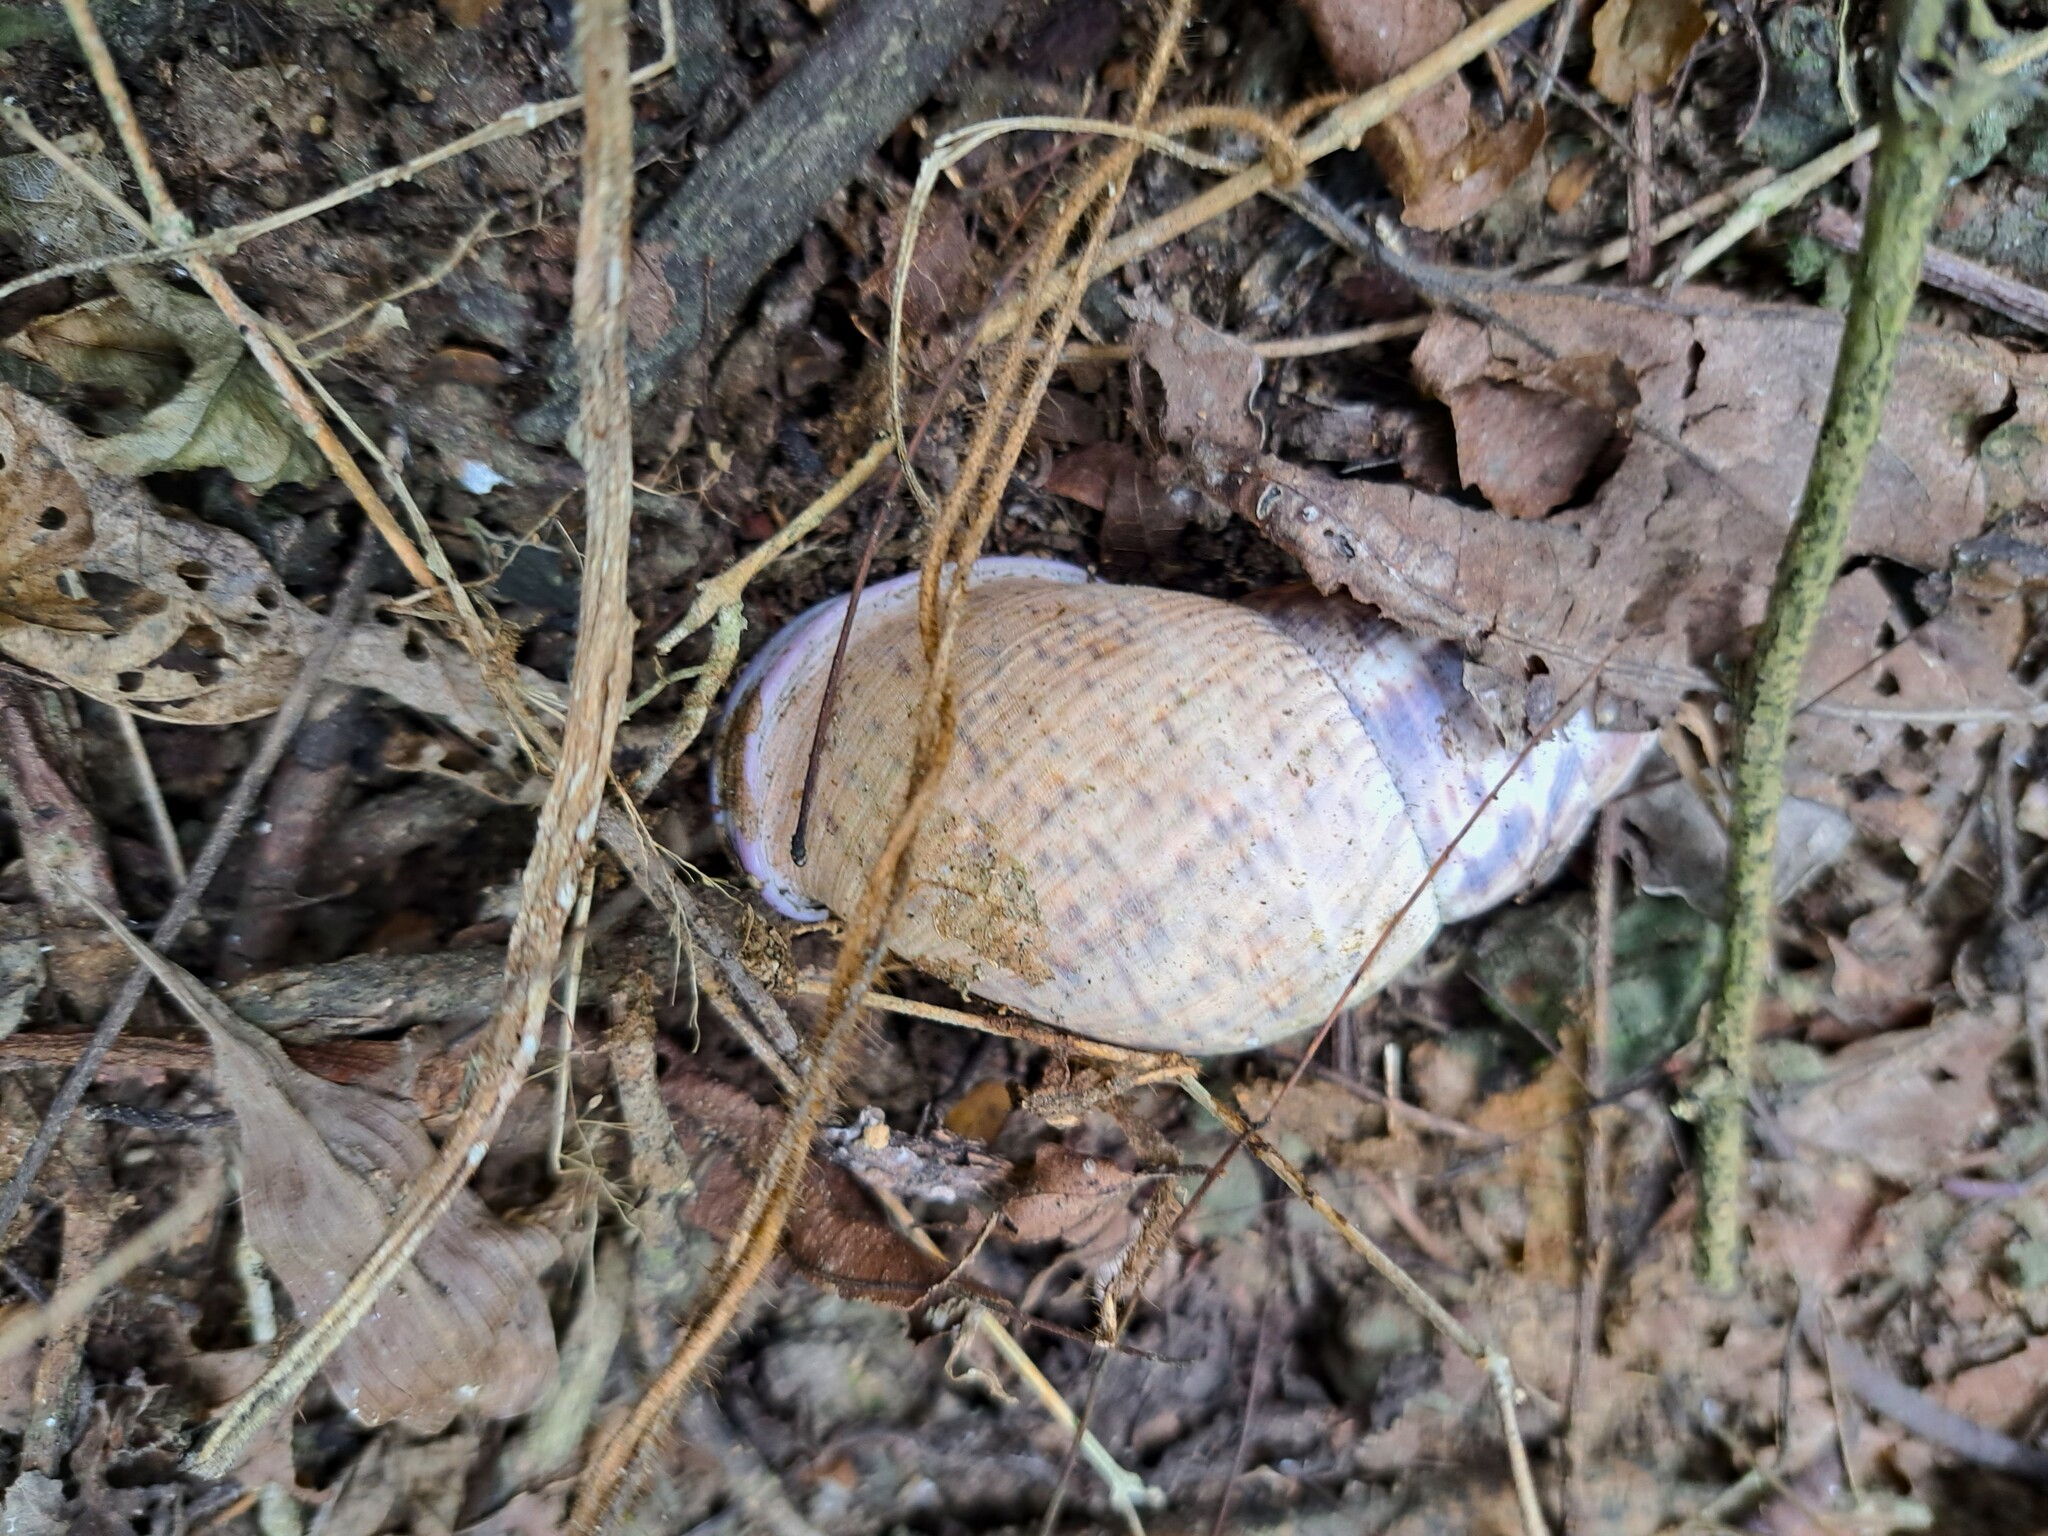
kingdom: Animalia
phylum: Mollusca
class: Gastropoda
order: Stylommatophora
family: Orthalicidae
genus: Porphyrobaphe
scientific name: Porphyrobaphe iostoma
